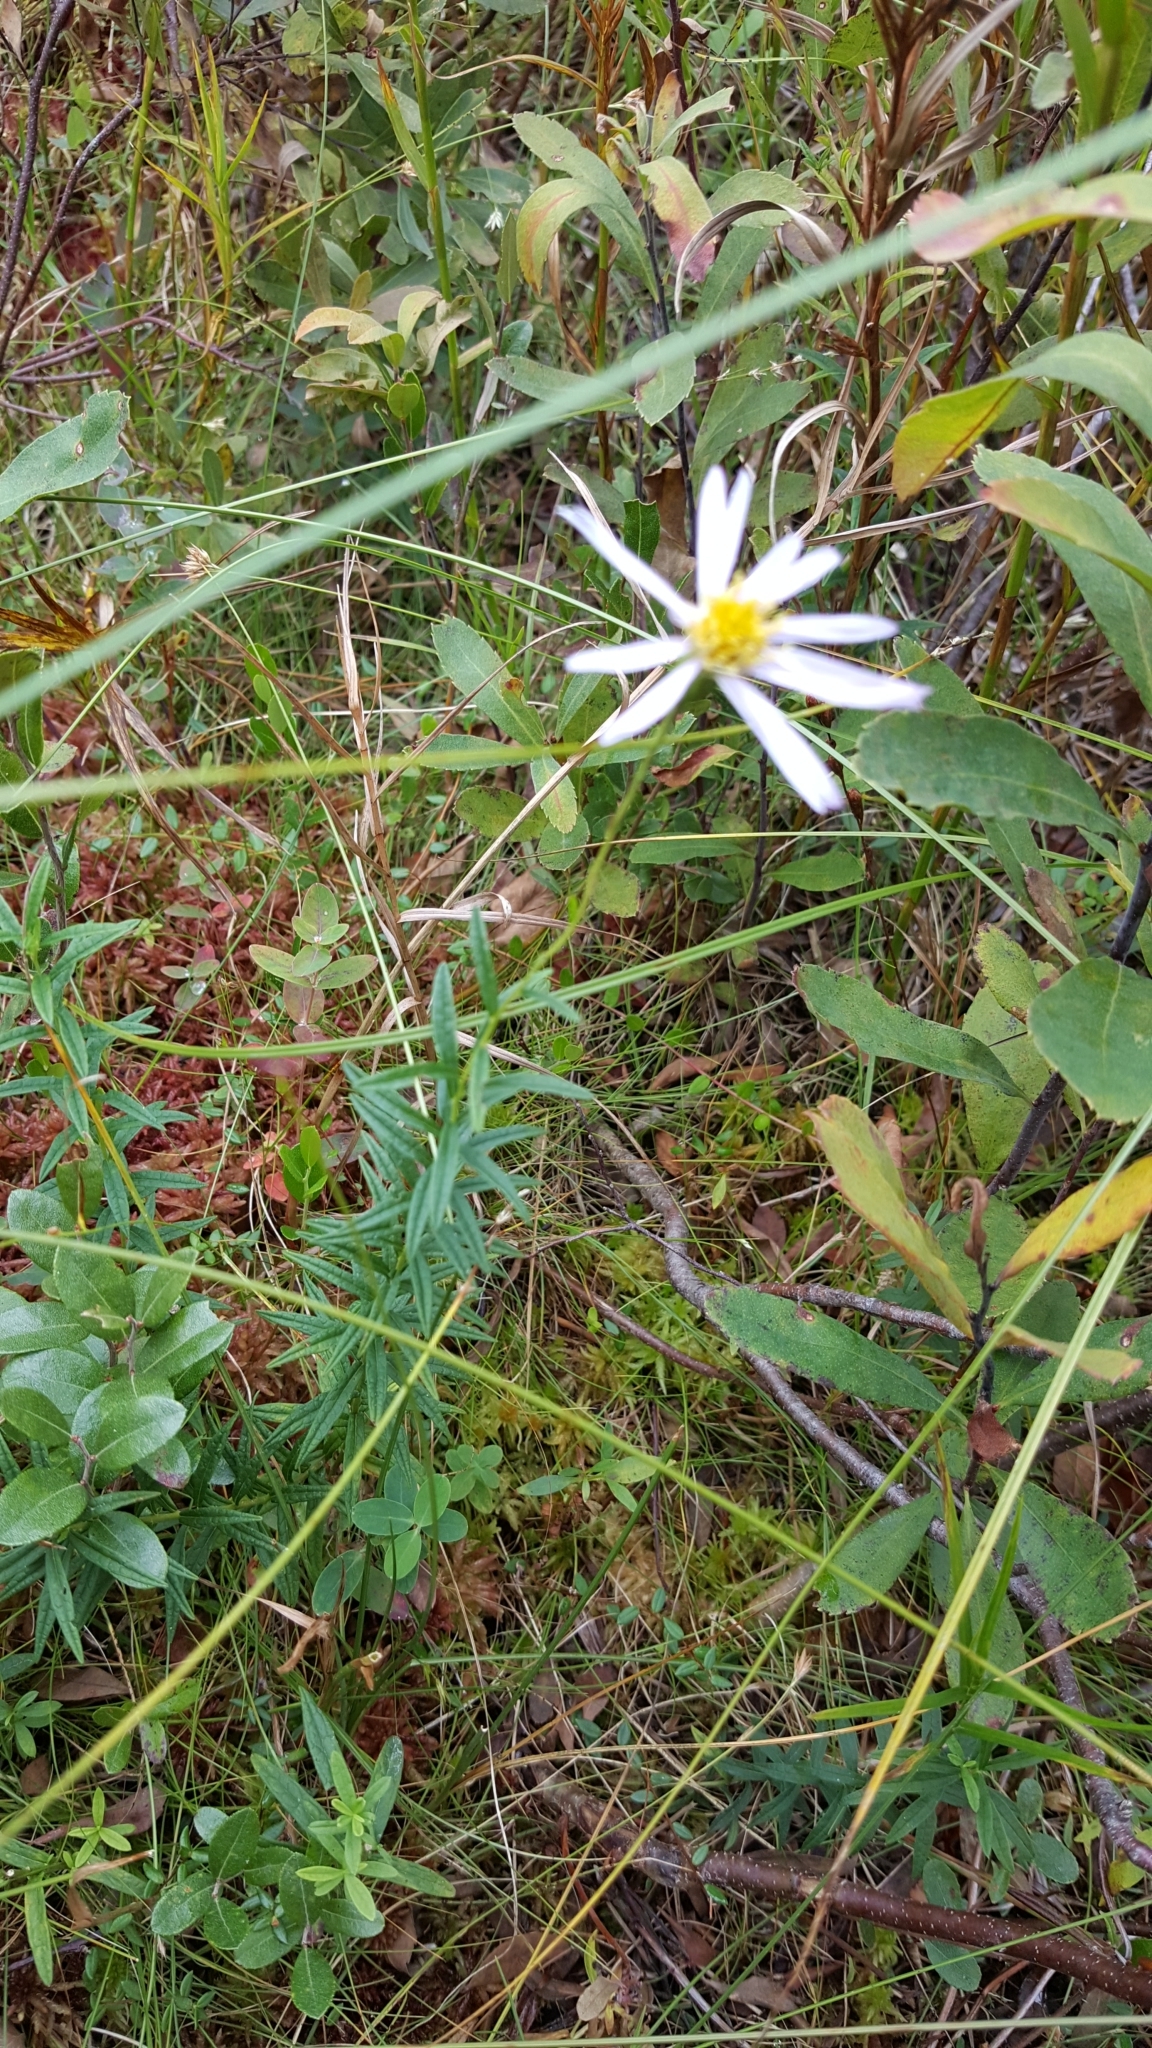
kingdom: Plantae
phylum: Tracheophyta
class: Magnoliopsida
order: Asterales
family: Asteraceae
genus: Oclemena
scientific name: Oclemena nemoralis
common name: Bog aster
